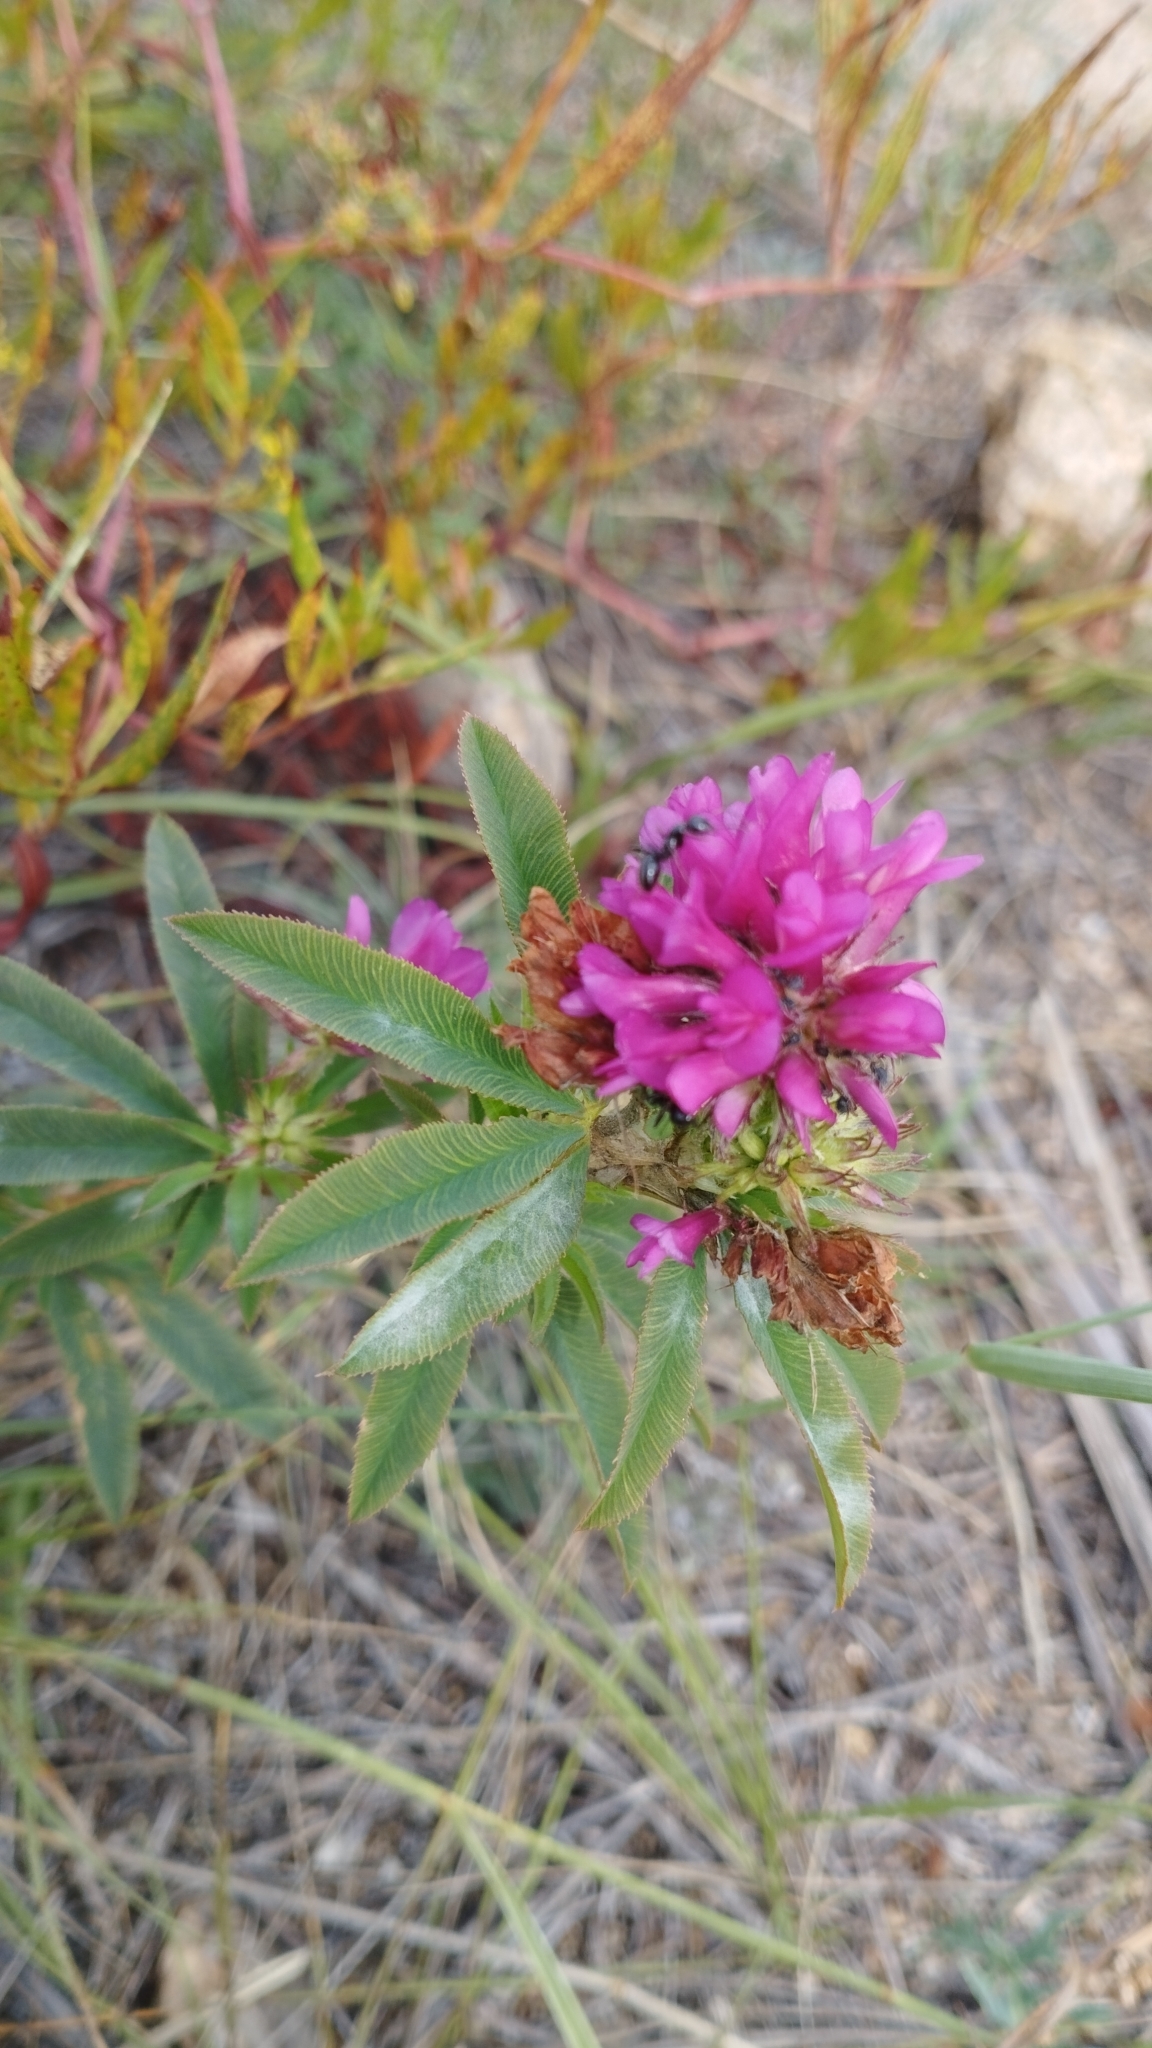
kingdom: Plantae
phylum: Tracheophyta
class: Magnoliopsida
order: Fabales
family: Fabaceae
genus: Trifolium
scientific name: Trifolium lupinaster
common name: Lupine clover
